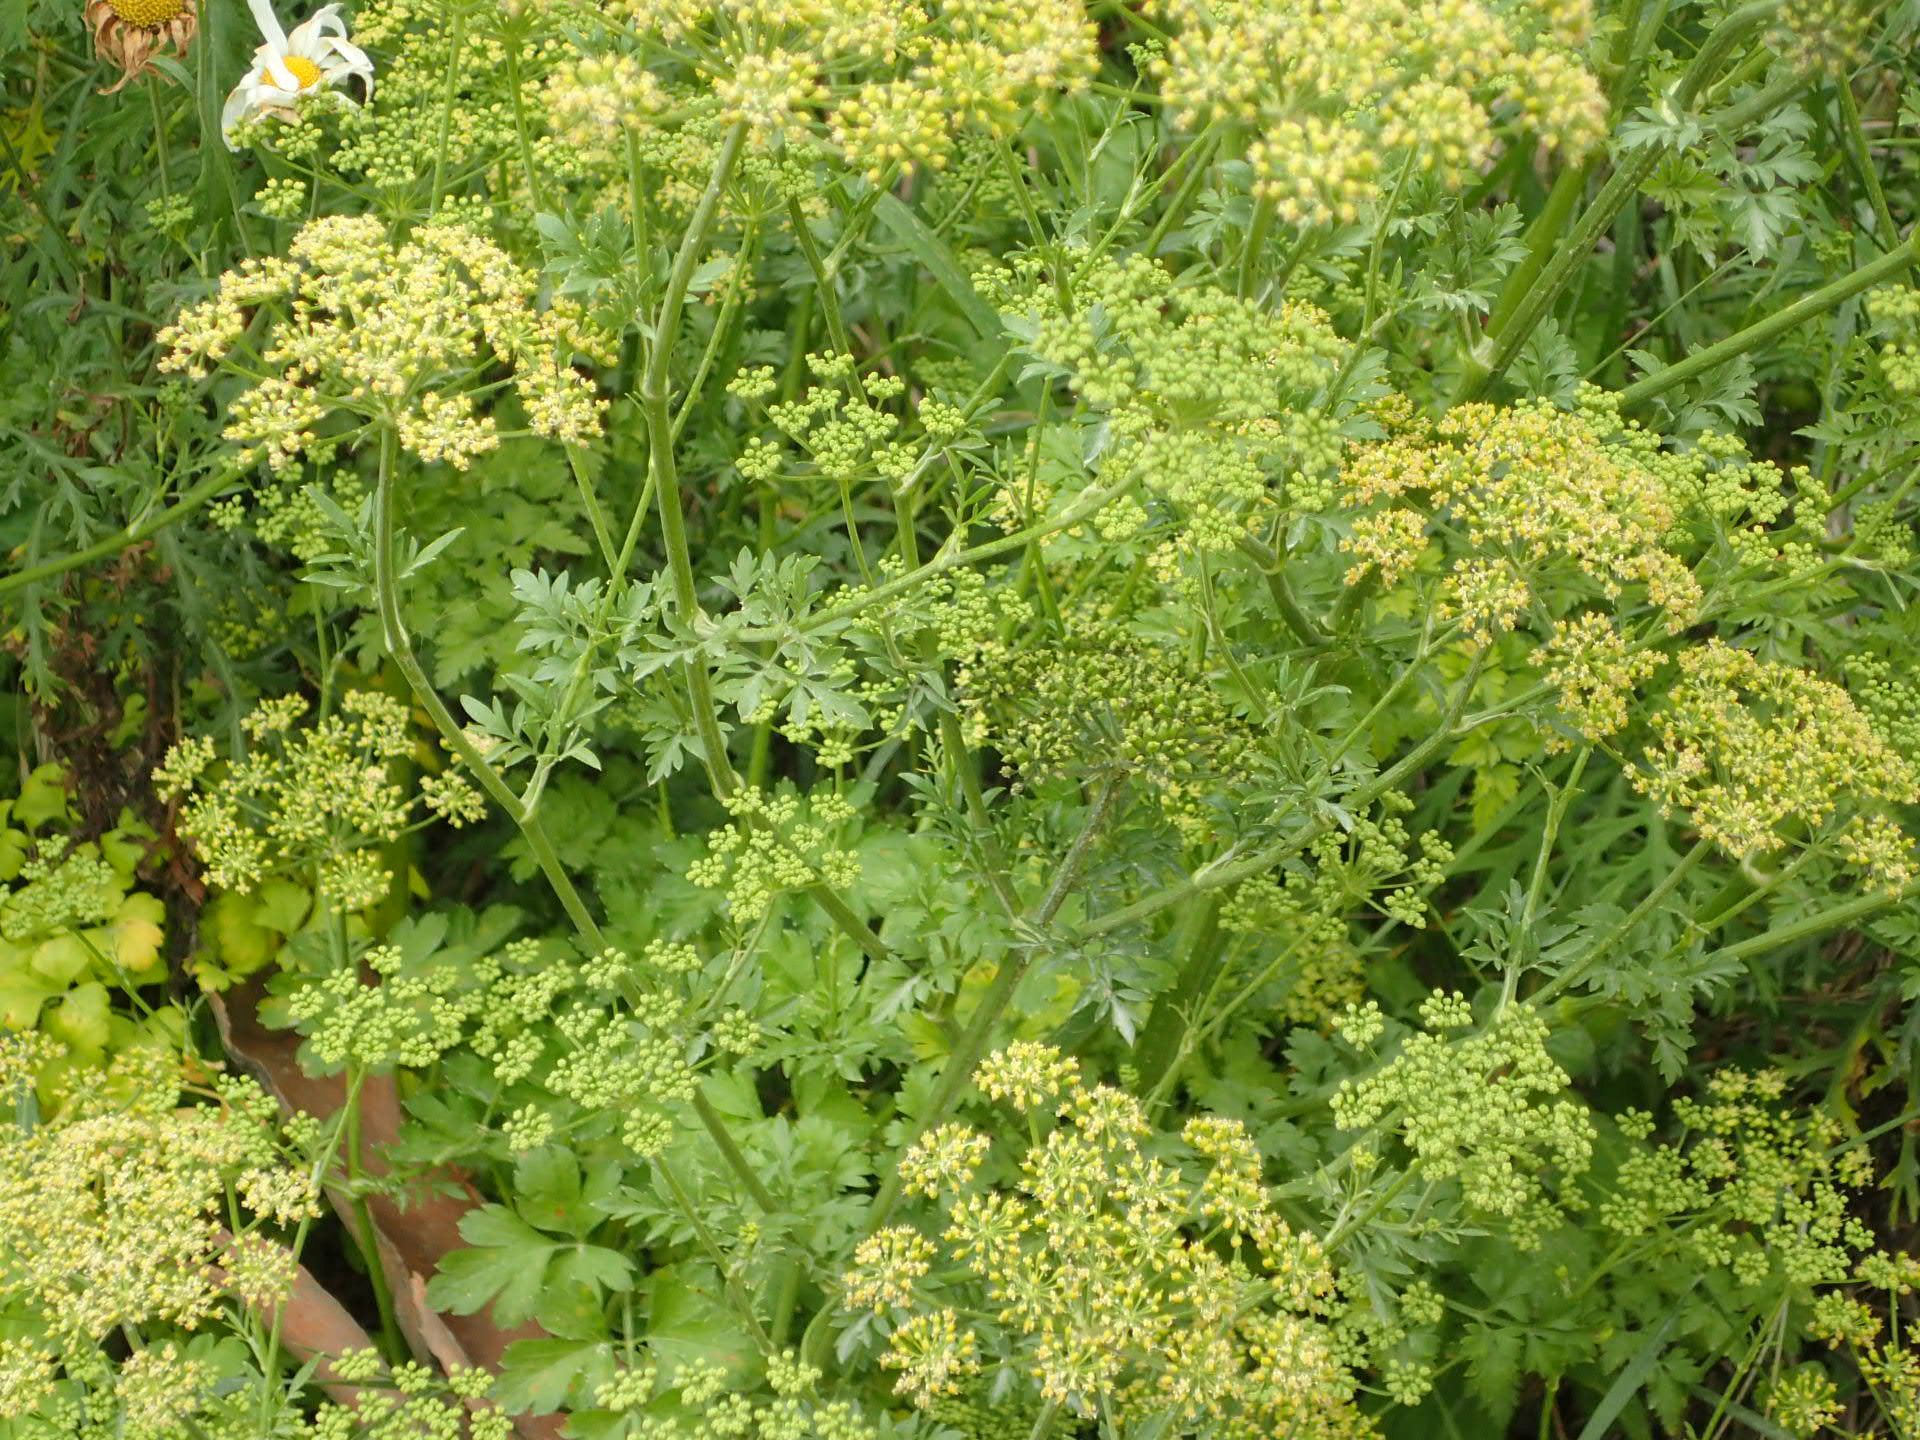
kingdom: Plantae
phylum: Tracheophyta
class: Magnoliopsida
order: Apiales
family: Apiaceae
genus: Petroselinum
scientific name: Petroselinum crispum
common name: Parsley
